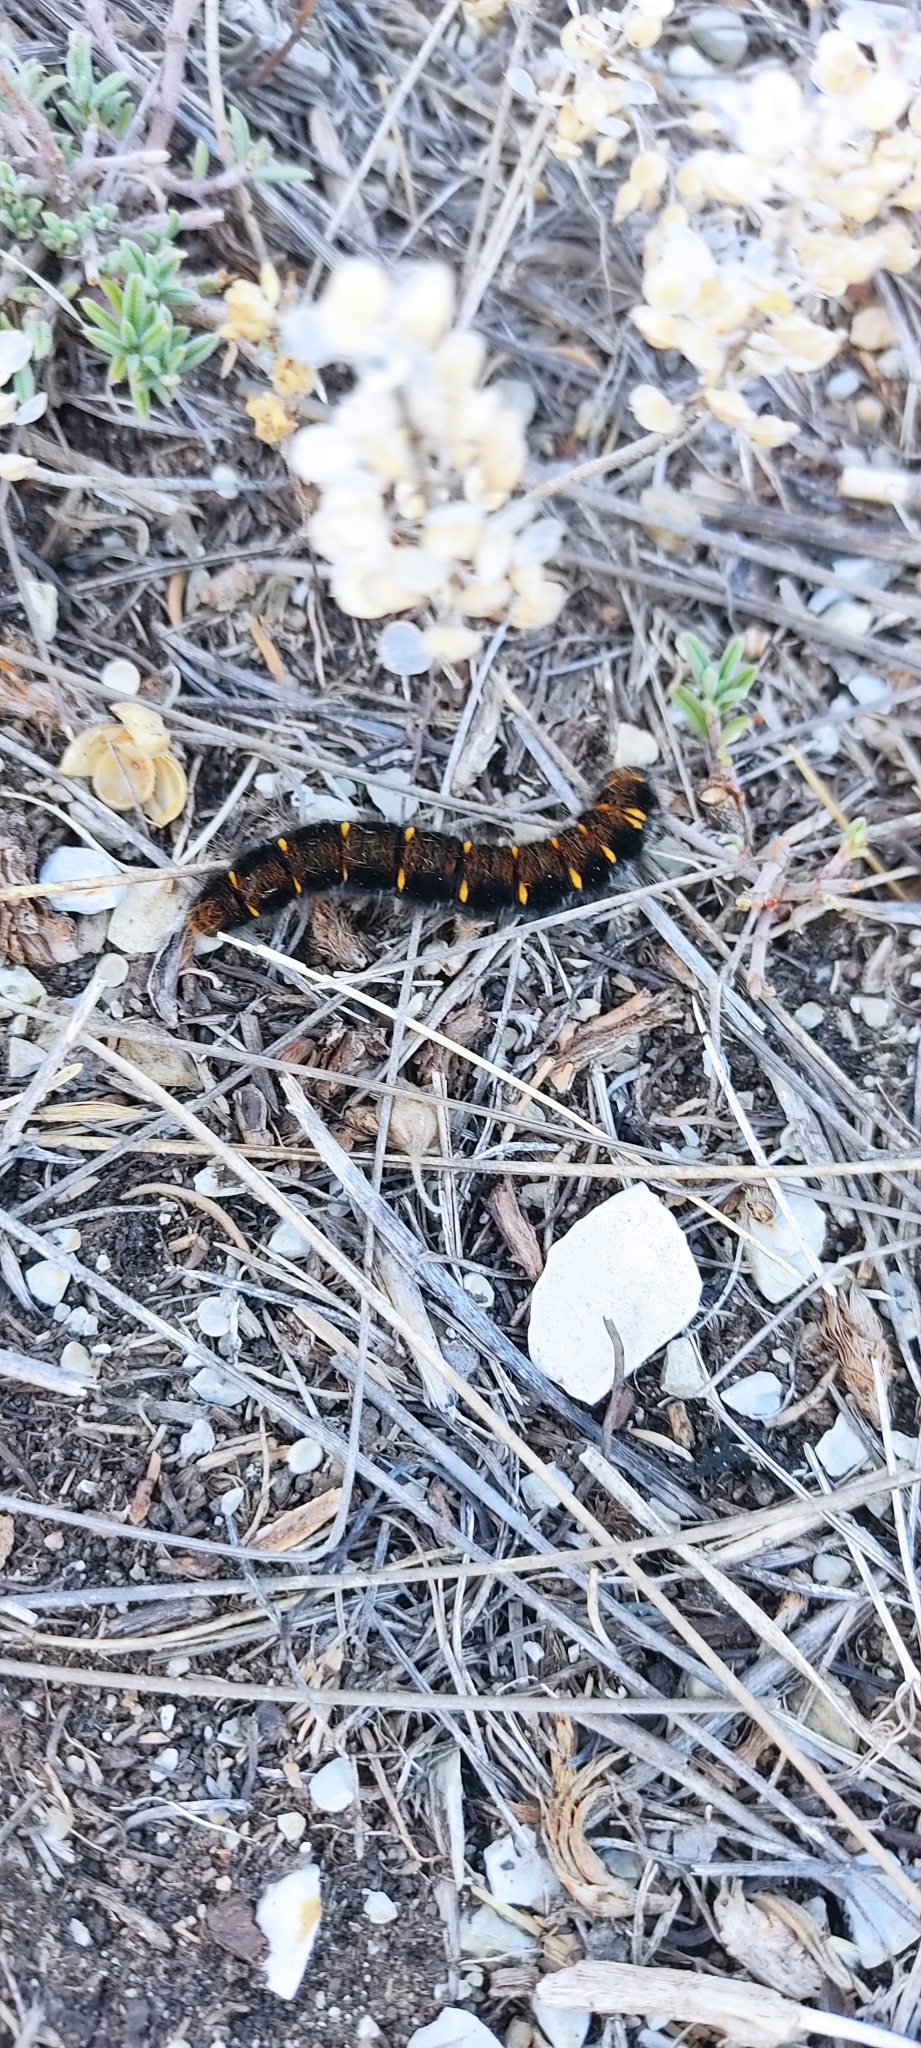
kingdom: Animalia
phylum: Arthropoda
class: Insecta
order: Lepidoptera
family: Lasiocampidae
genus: Macrothylacia
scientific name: Macrothylacia rubi
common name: Fox moth
